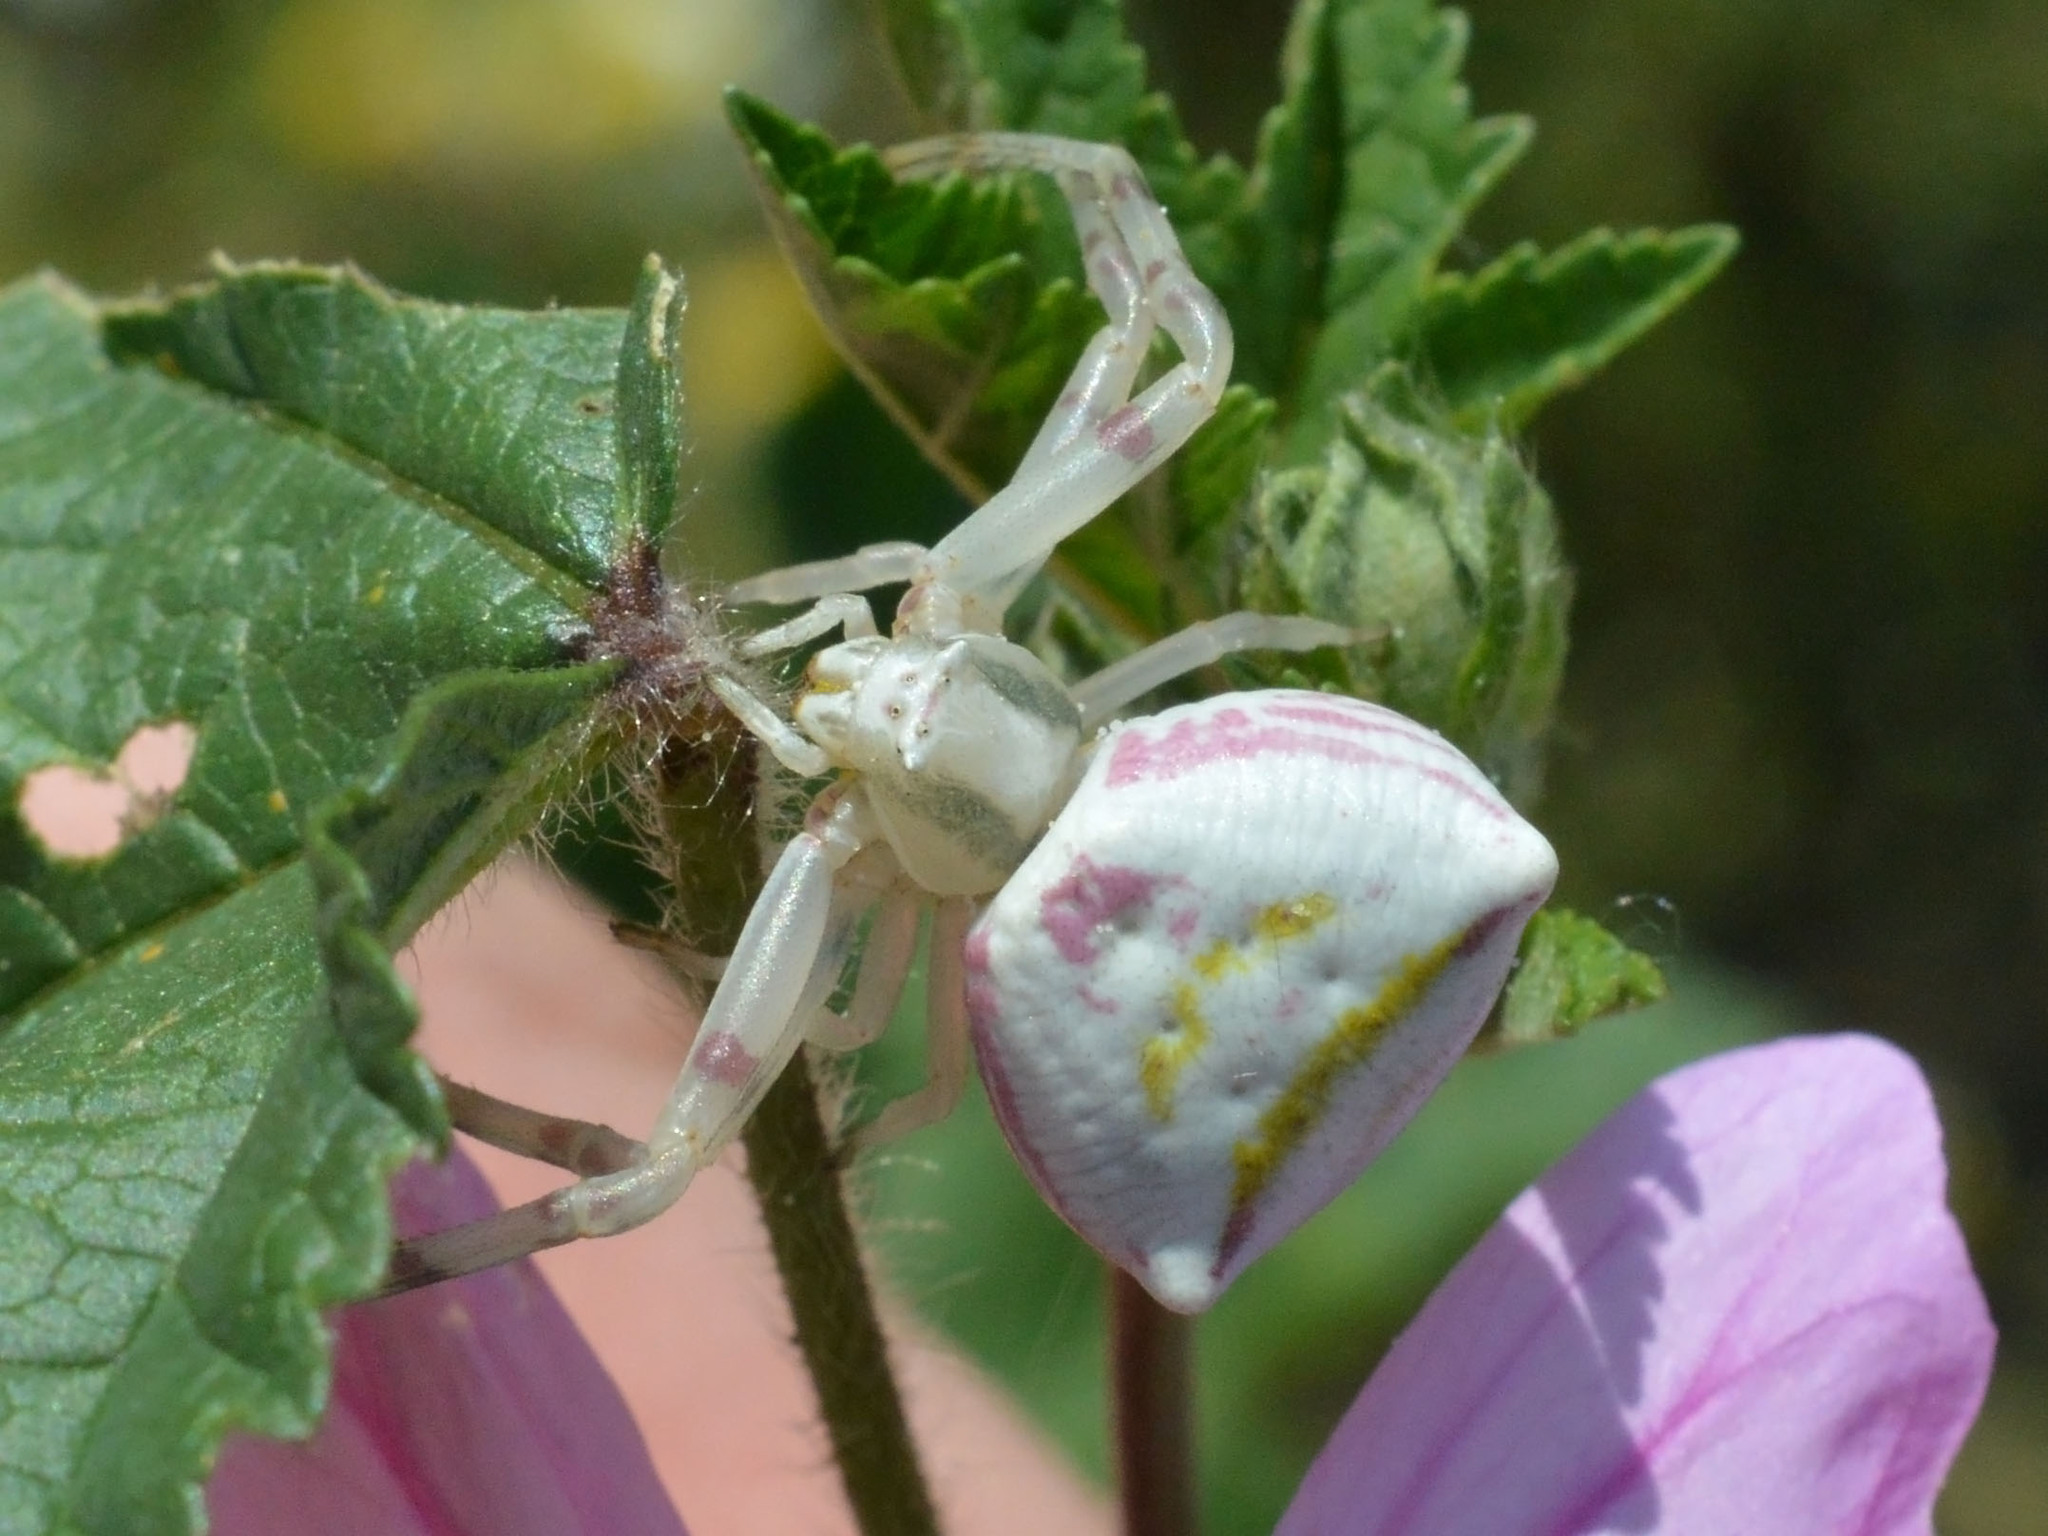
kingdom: Animalia
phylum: Arthropoda
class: Arachnida
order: Araneae
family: Thomisidae
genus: Thomisus
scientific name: Thomisus onustus
